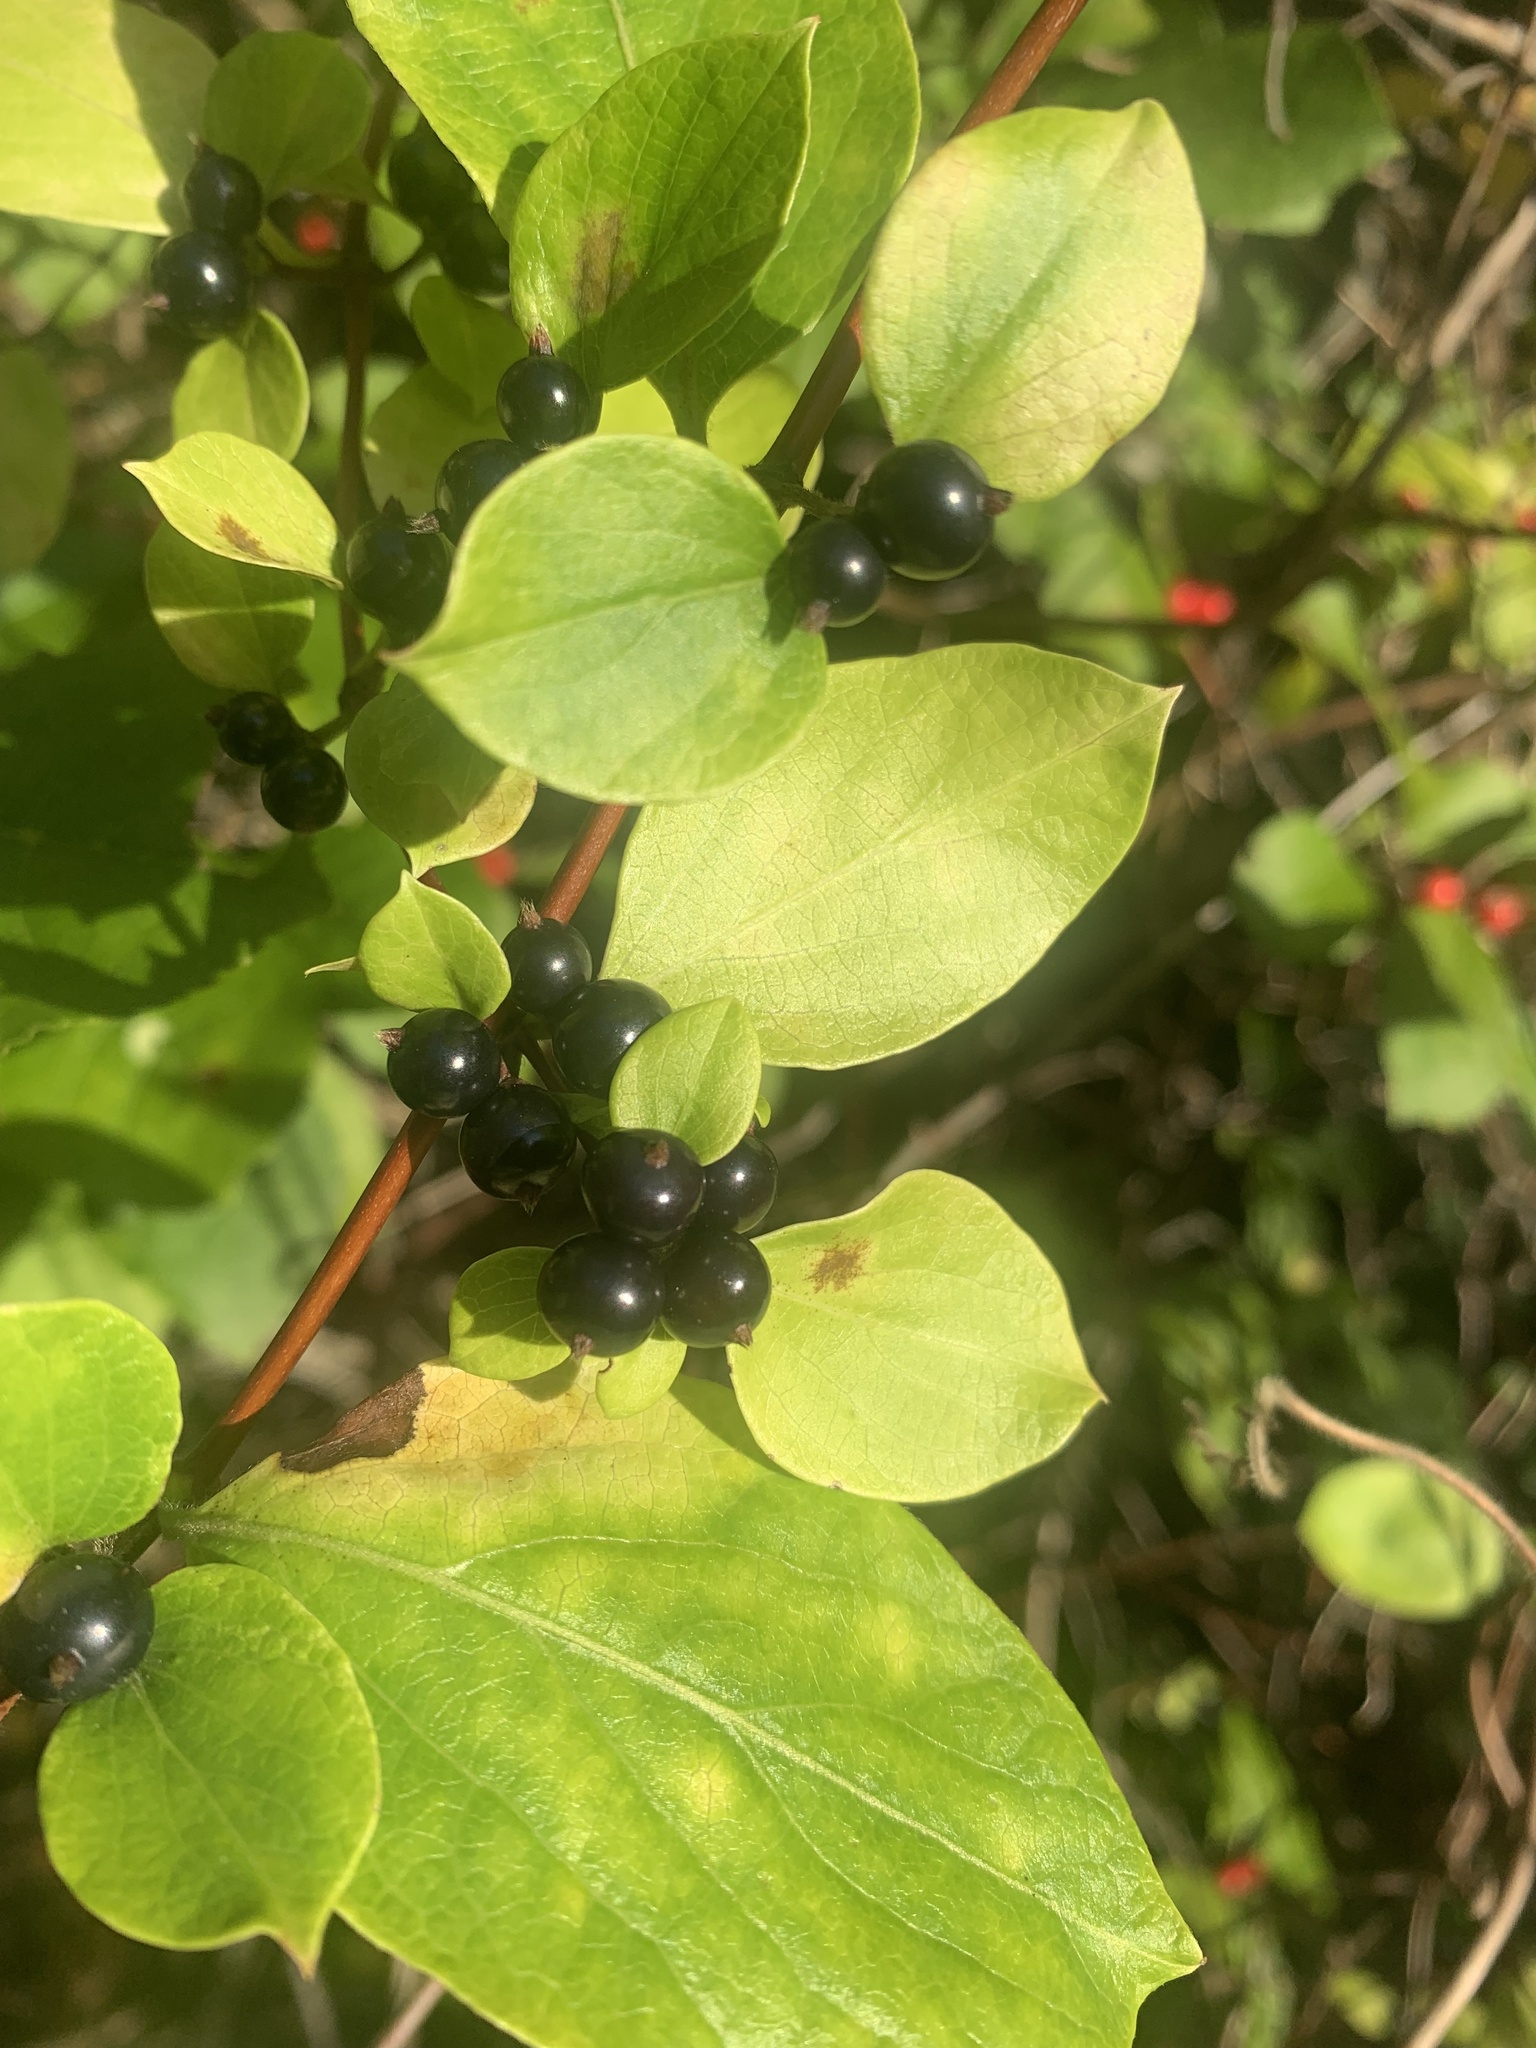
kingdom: Plantae
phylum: Tracheophyta
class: Magnoliopsida
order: Dipsacales
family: Caprifoliaceae
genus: Lonicera
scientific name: Lonicera japonica
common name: Japanese honeysuckle
